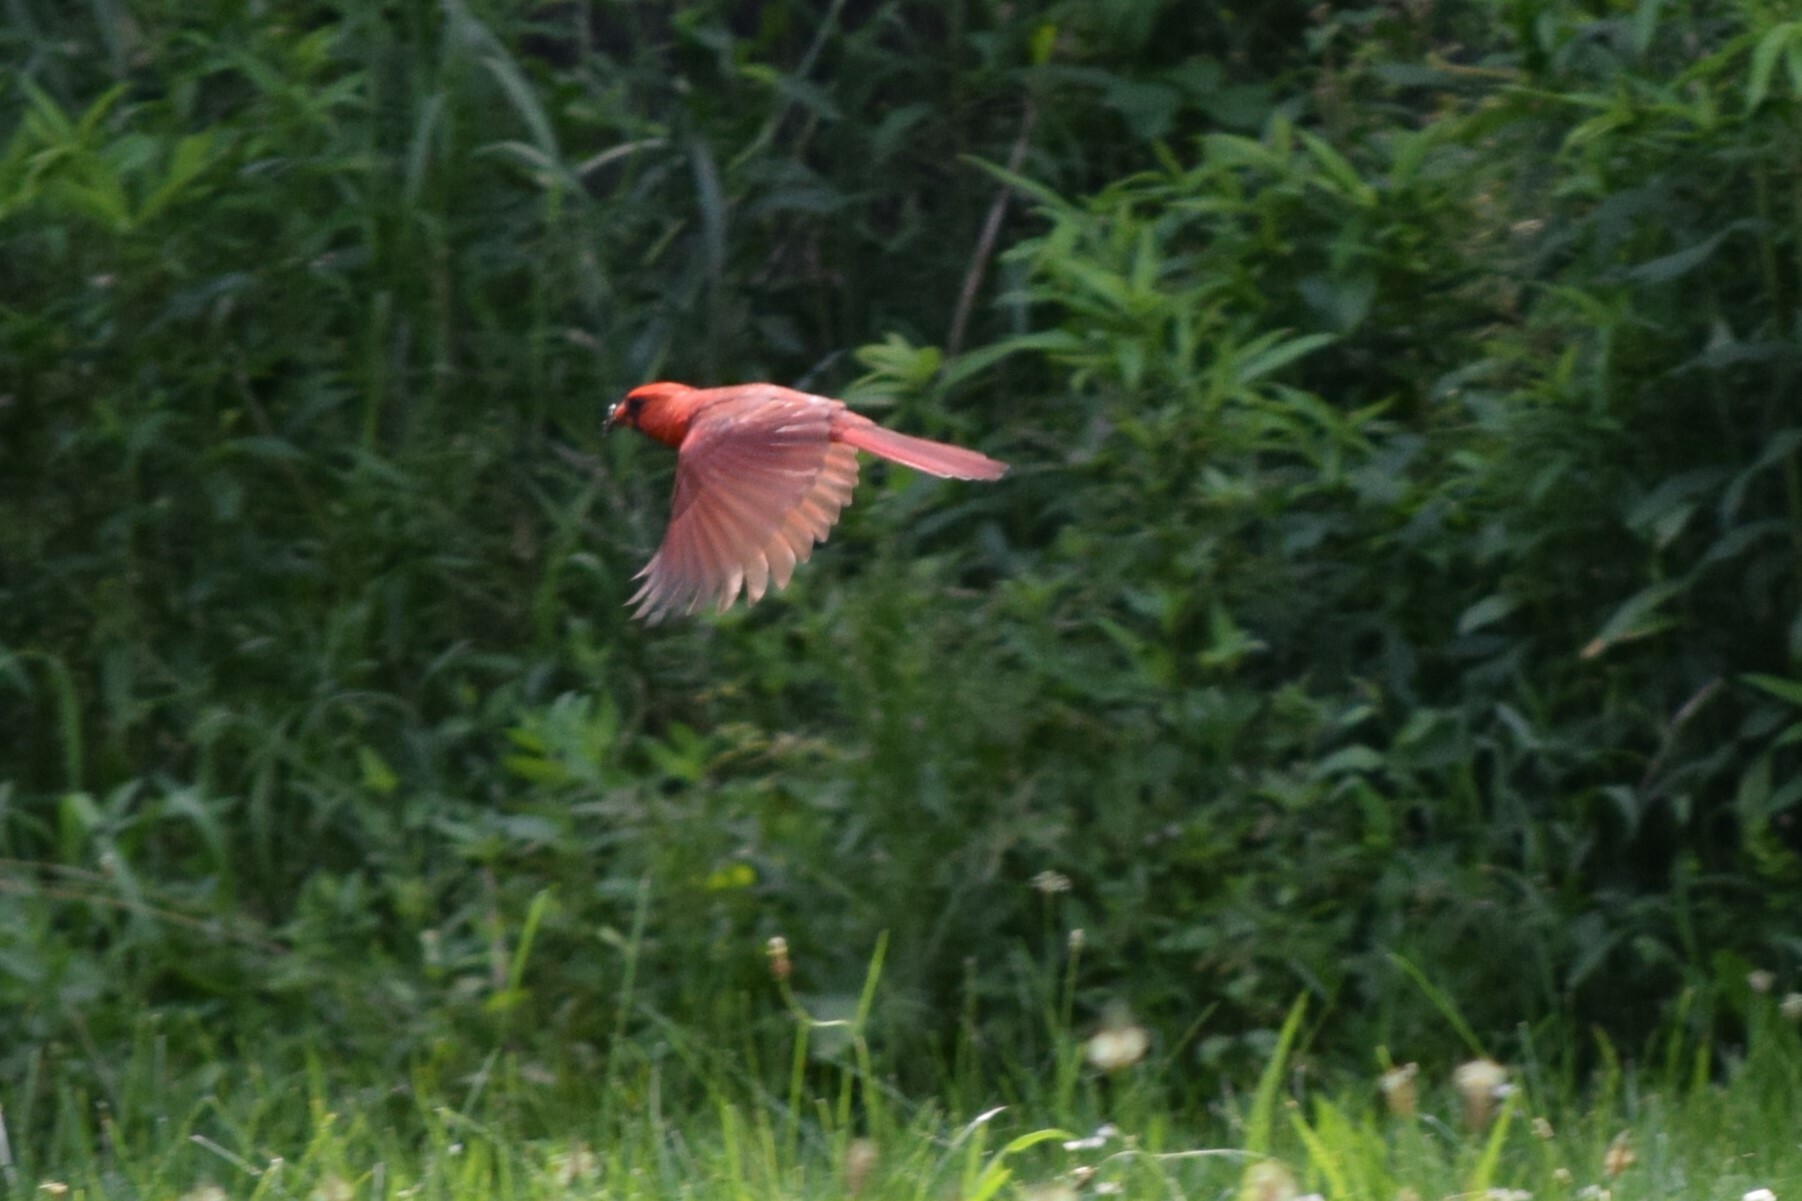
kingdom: Animalia
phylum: Chordata
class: Aves
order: Passeriformes
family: Cardinalidae
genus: Cardinalis
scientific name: Cardinalis cardinalis
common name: Northern cardinal
